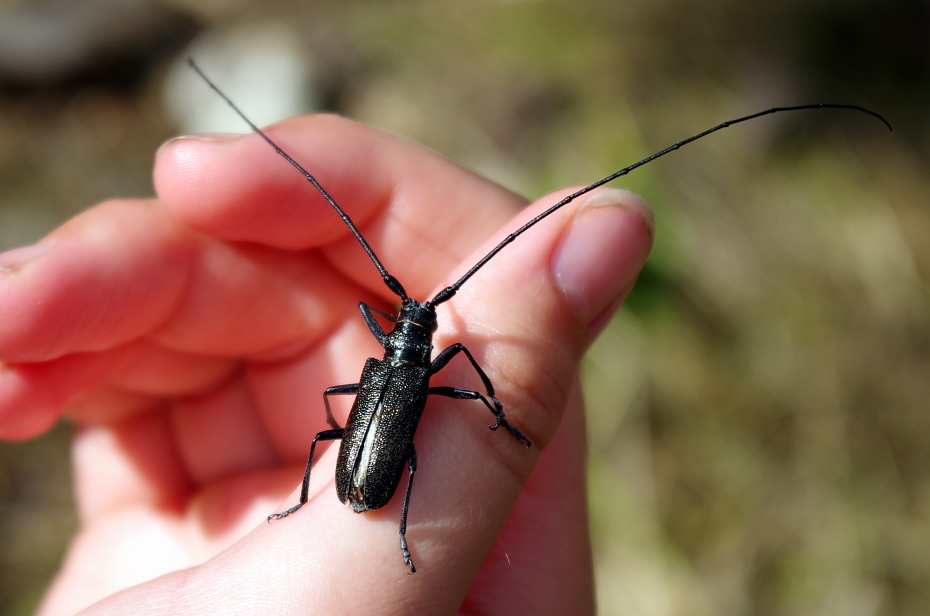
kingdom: Animalia
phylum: Arthropoda
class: Insecta
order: Coleoptera
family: Cerambycidae
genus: Monochamus
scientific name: Monochamus sutor
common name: Pine sawyer
